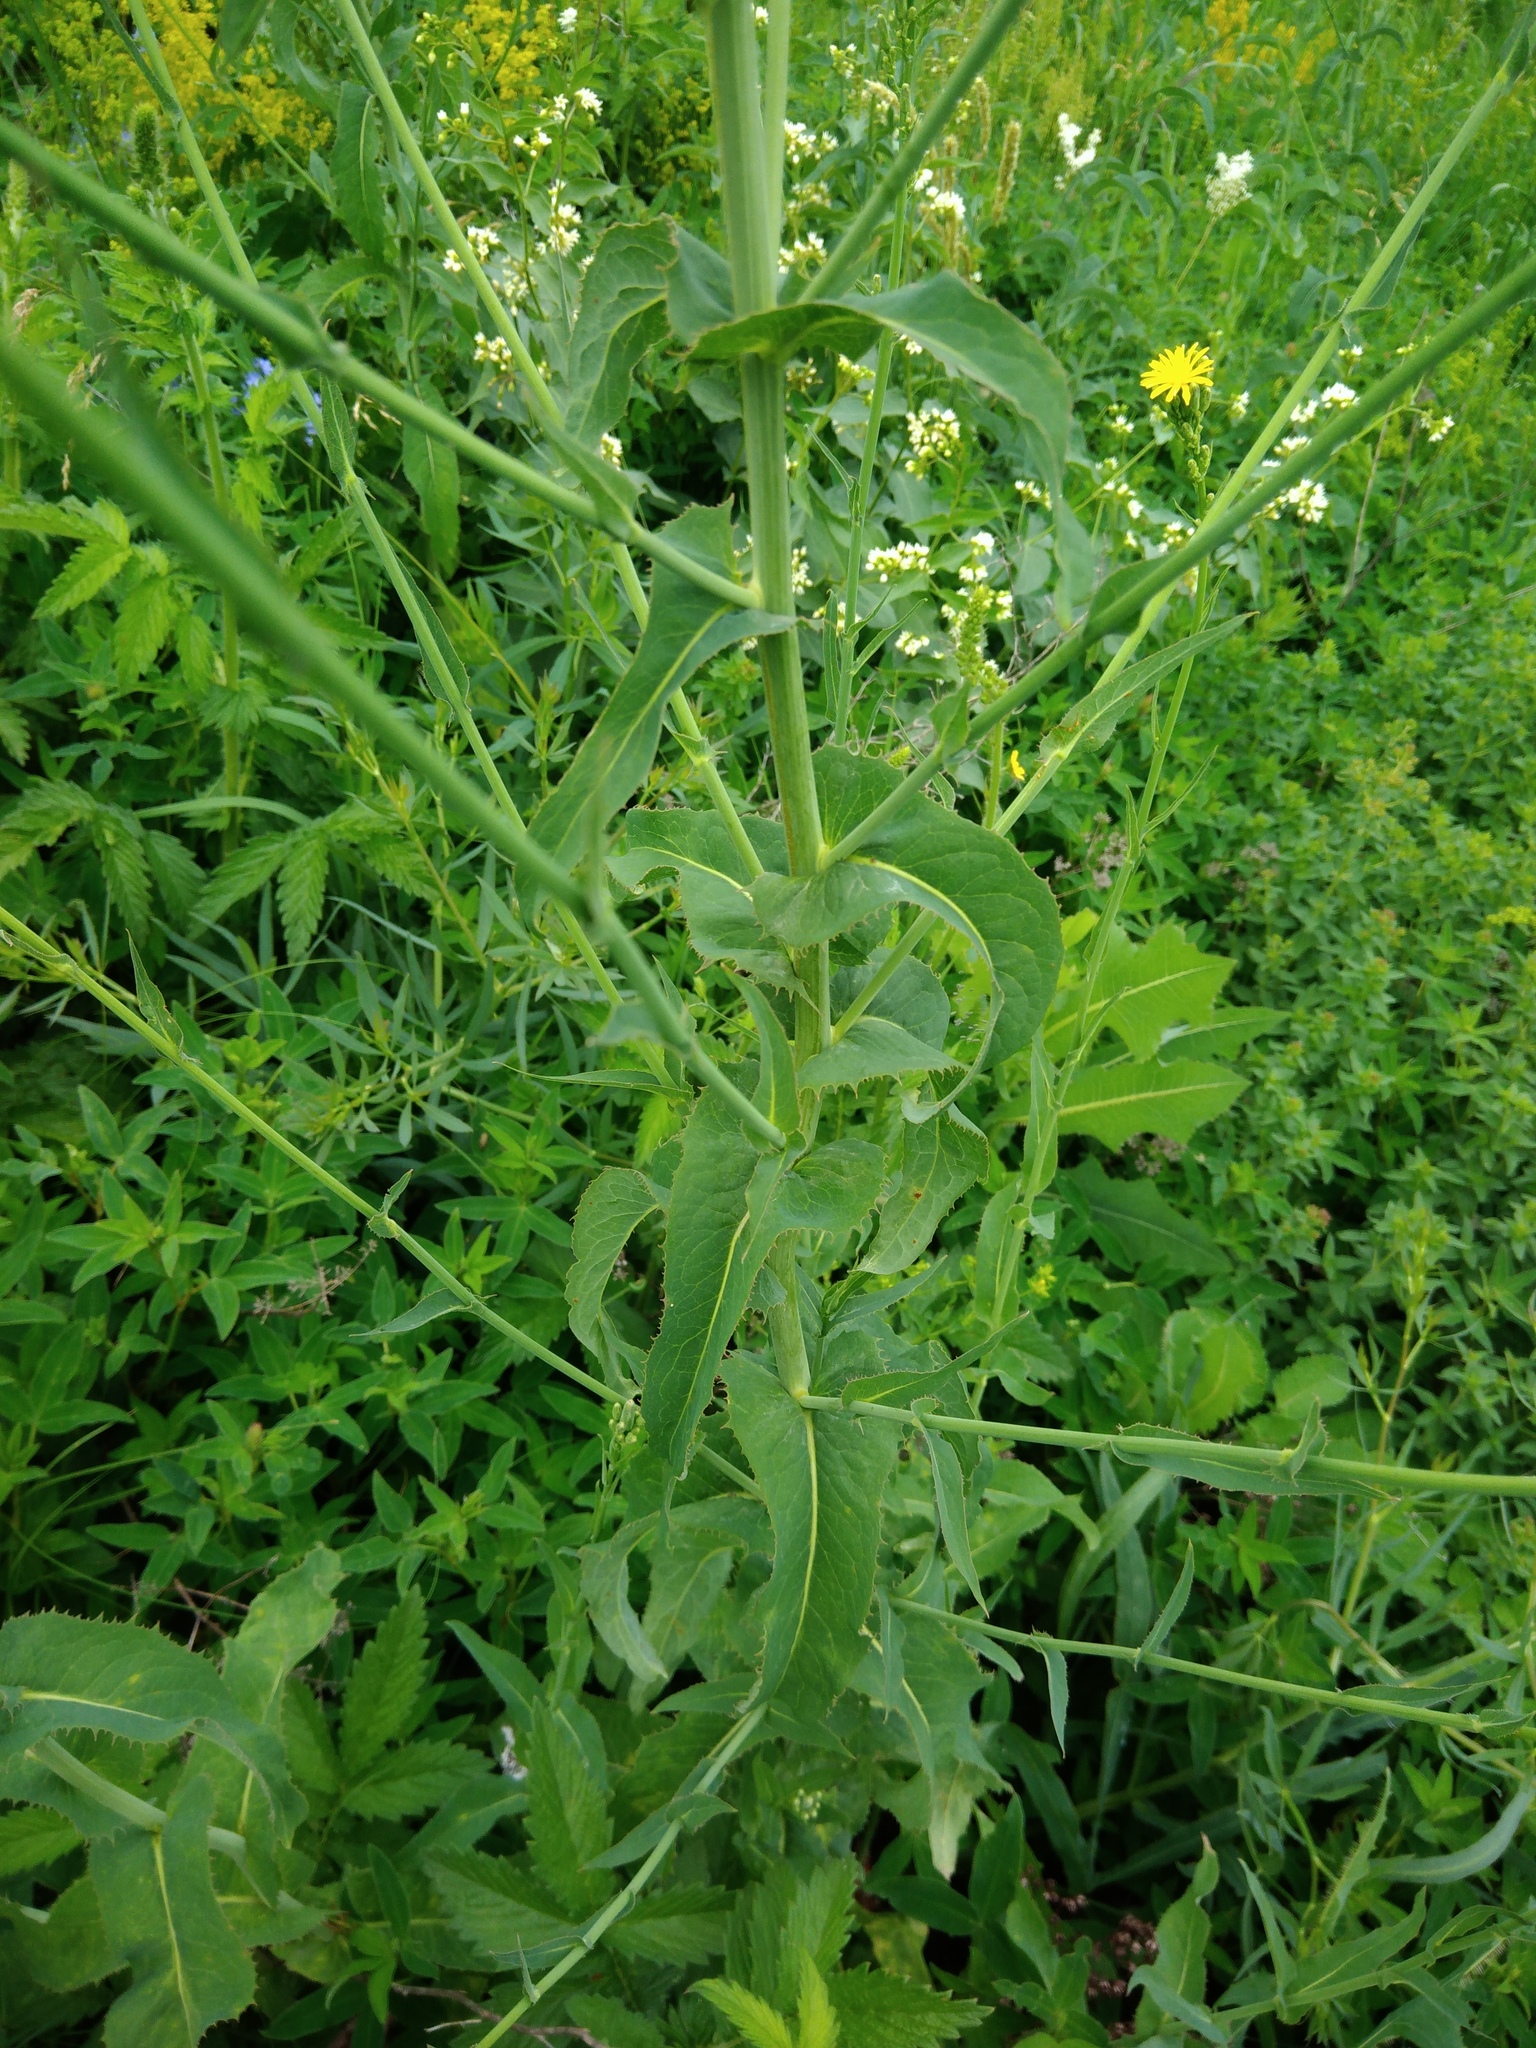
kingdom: Plantae
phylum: Tracheophyta
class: Magnoliopsida
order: Asterales
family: Asteraceae
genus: Lactuca
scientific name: Lactuca quercina
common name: Wild lettuce
